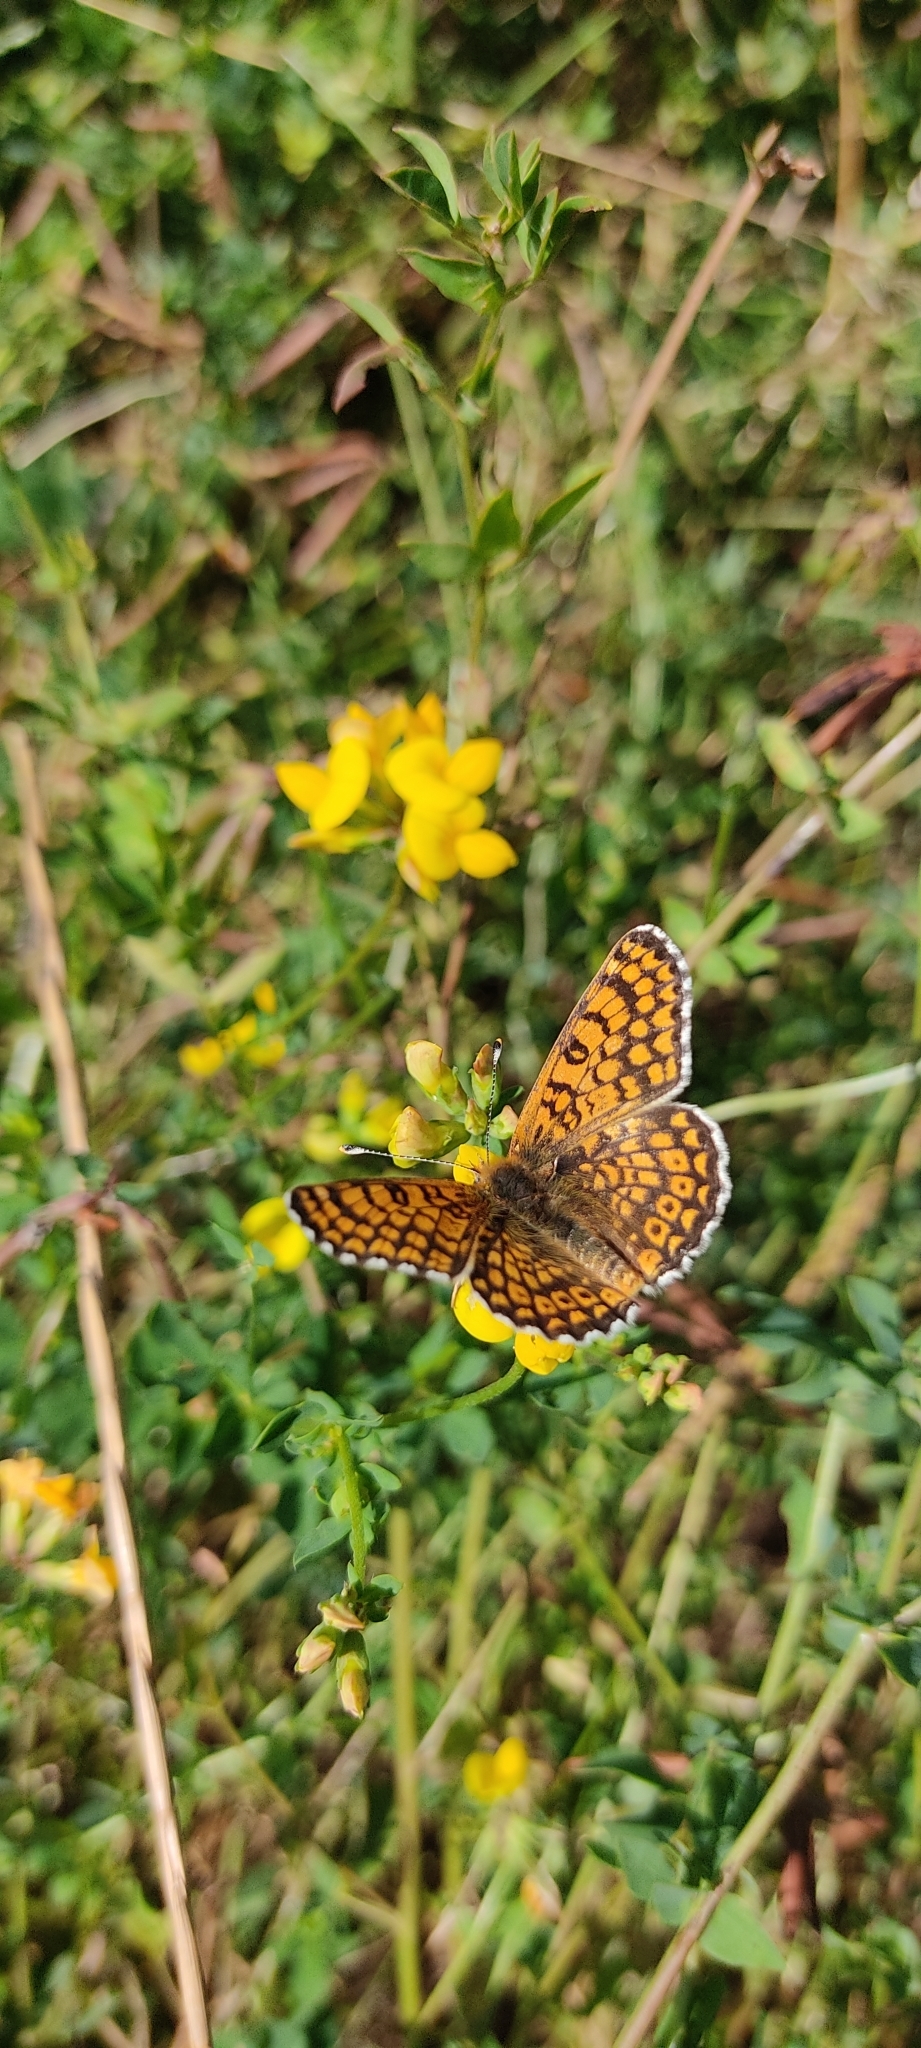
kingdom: Animalia
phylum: Arthropoda
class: Insecta
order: Lepidoptera
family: Nymphalidae
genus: Melitaea
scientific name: Melitaea cinxia
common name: Glanville fritillary
